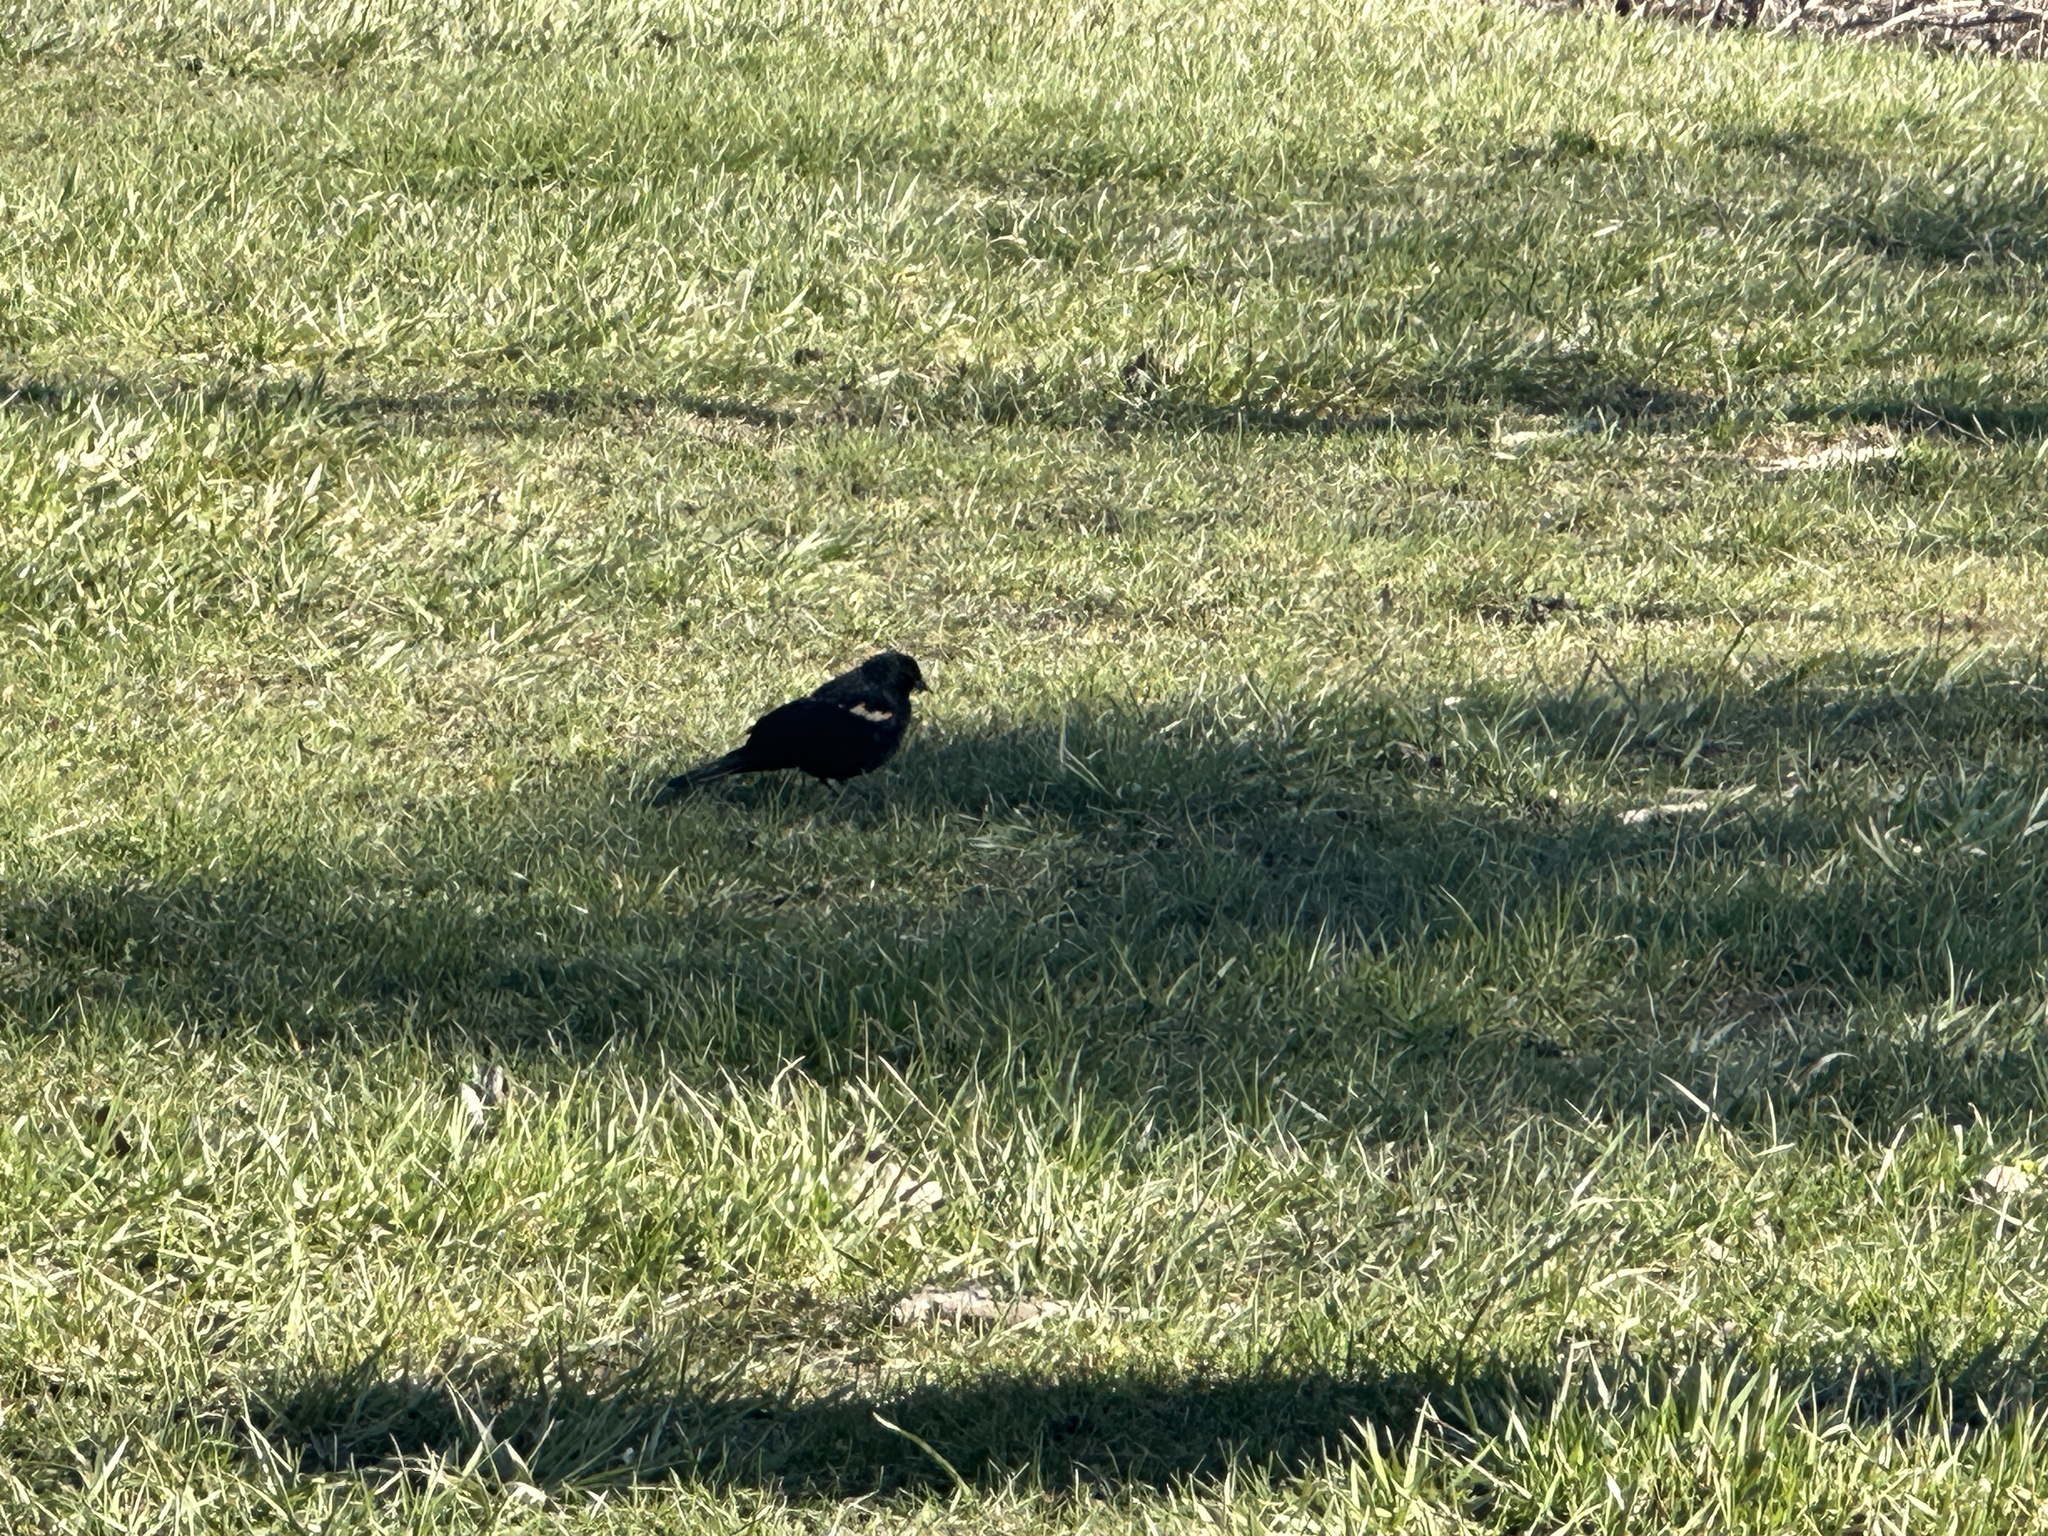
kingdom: Animalia
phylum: Chordata
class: Aves
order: Passeriformes
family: Icteridae
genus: Agelaius
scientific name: Agelaius phoeniceus
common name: Red-winged blackbird
